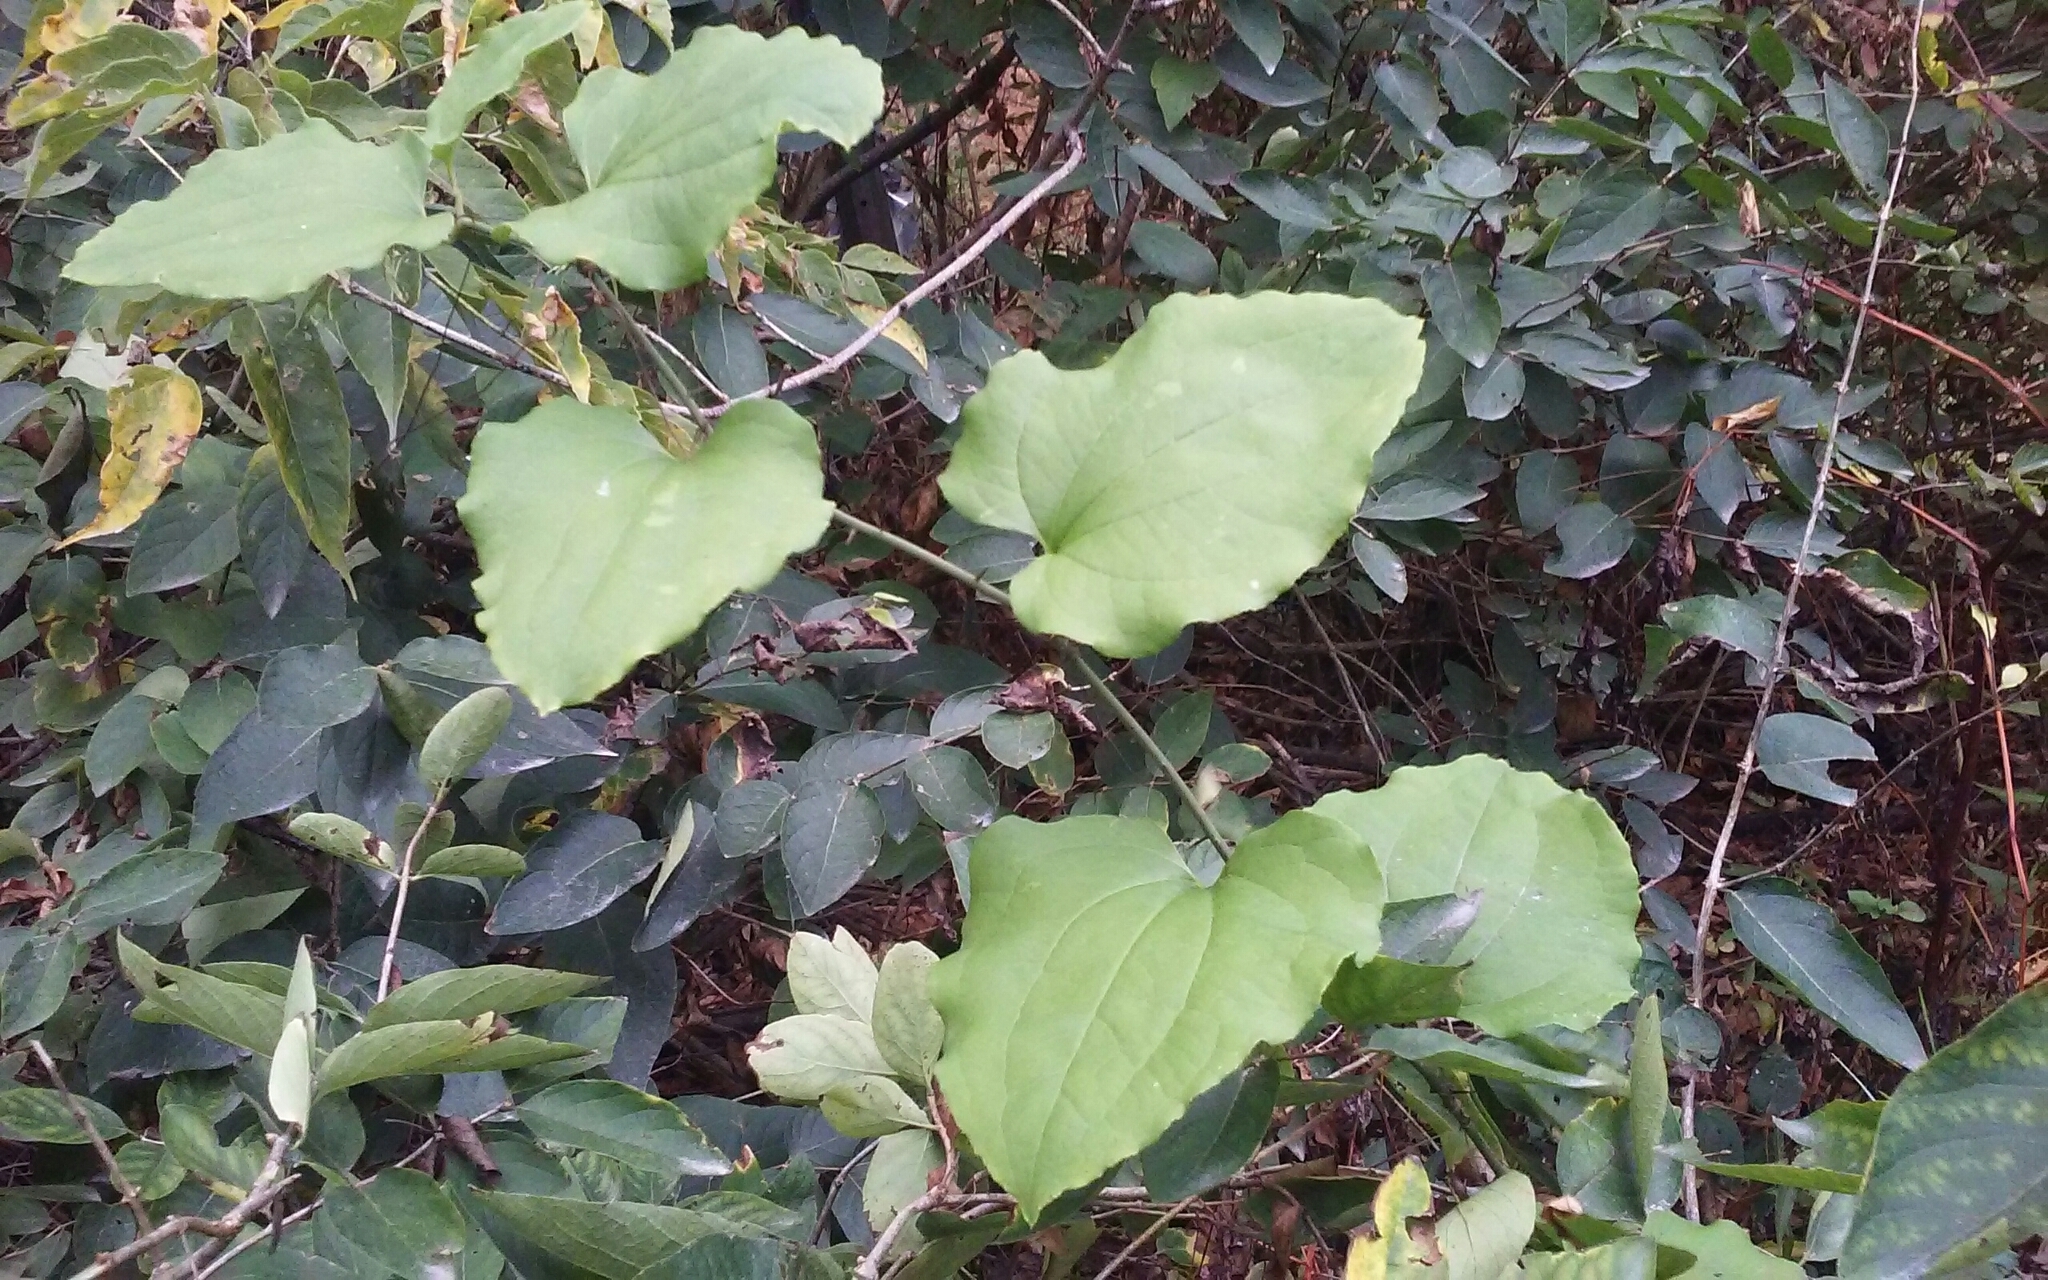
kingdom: Plantae
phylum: Tracheophyta
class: Liliopsida
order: Liliales
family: Smilacaceae
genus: Smilax
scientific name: Smilax tamnoides
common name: Hellfetter
